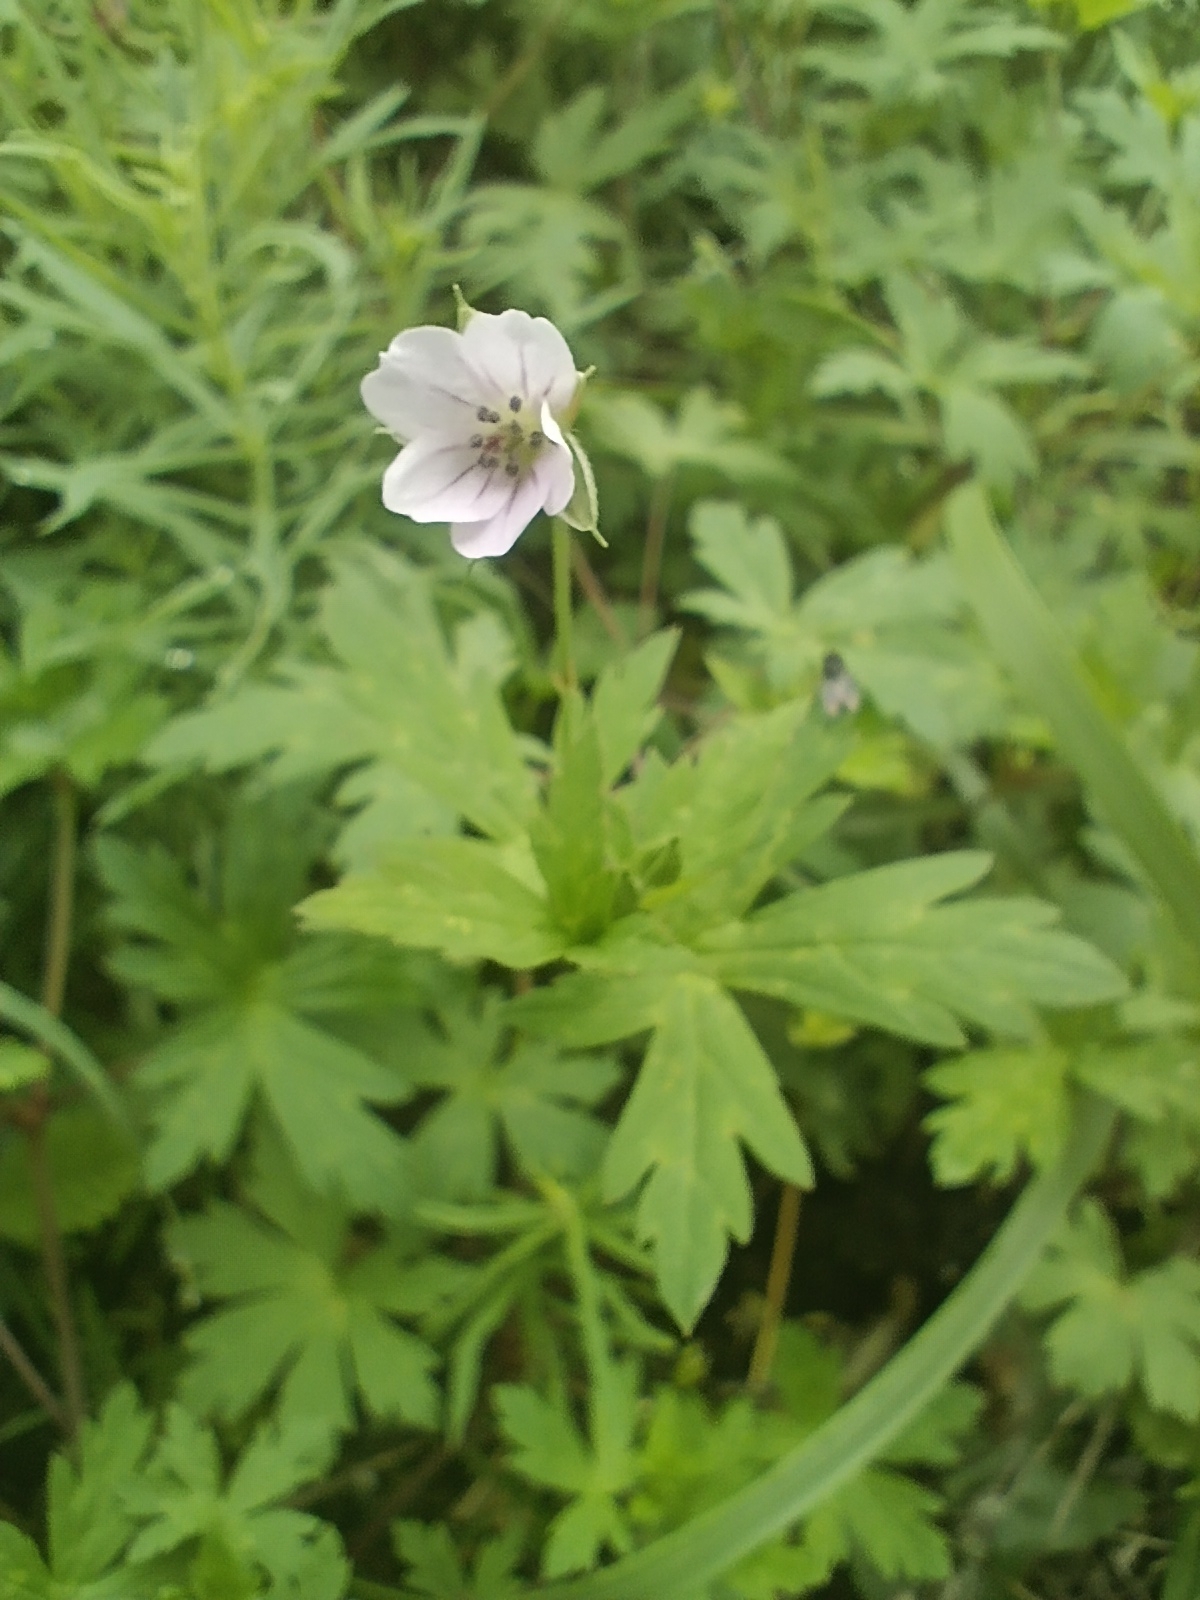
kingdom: Plantae
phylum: Tracheophyta
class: Magnoliopsida
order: Geraniales
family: Geraniaceae
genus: Geranium
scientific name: Geranium sibiricum
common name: Siberian crane's-bill
